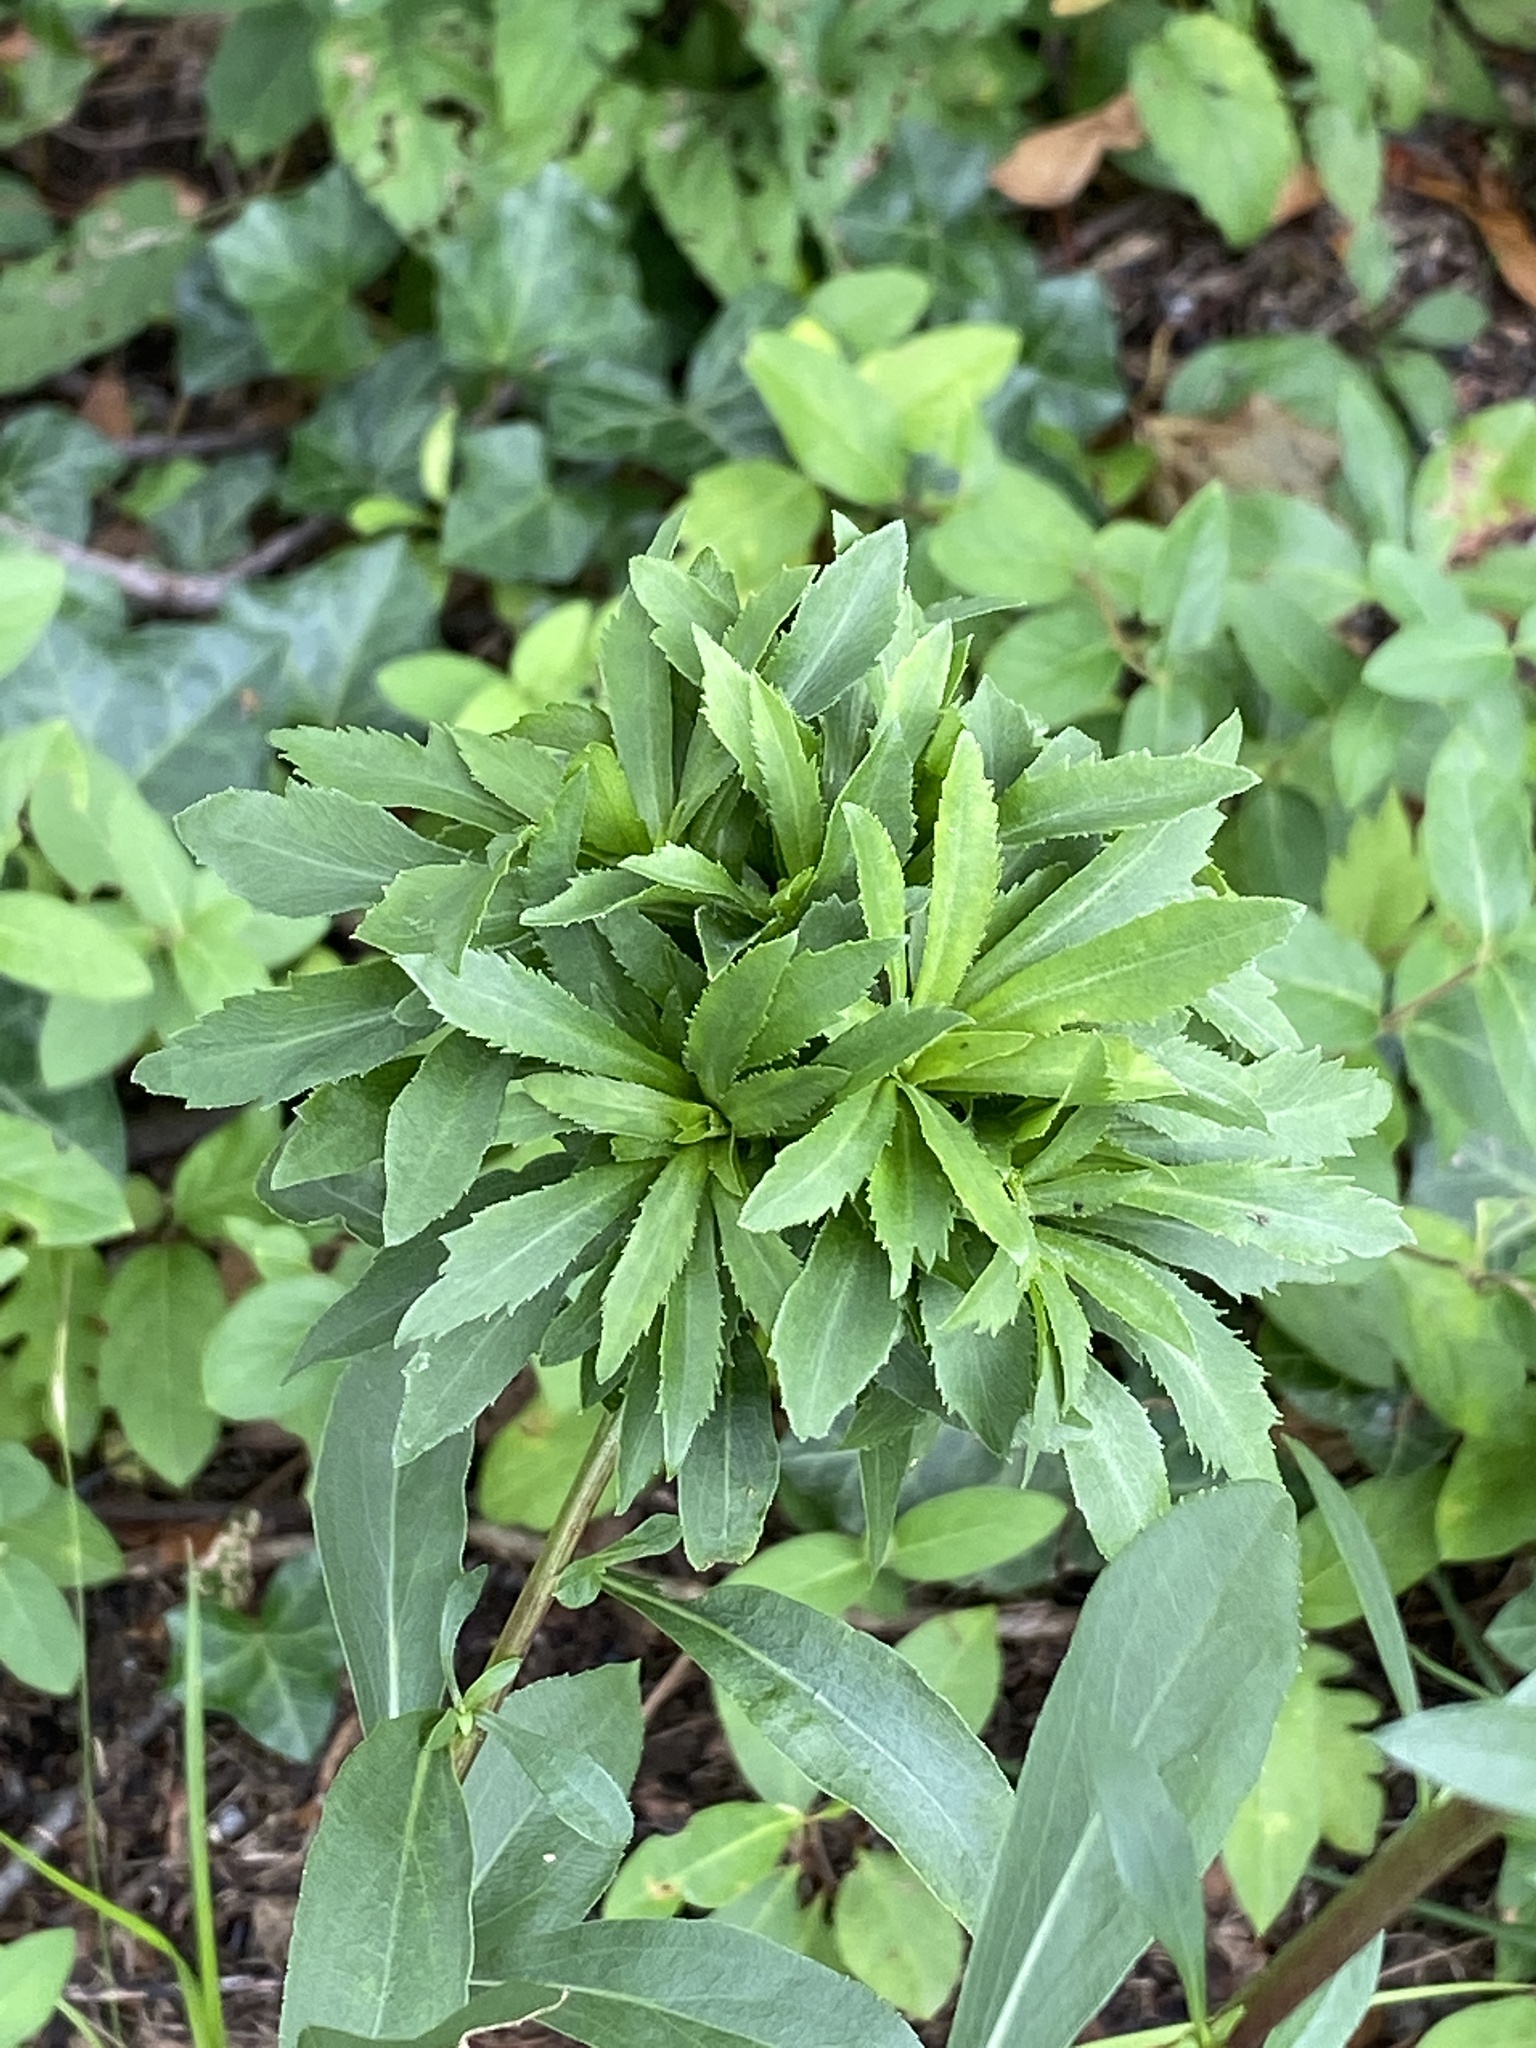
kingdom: Animalia
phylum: Arthropoda
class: Insecta
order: Diptera
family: Cecidomyiidae
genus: Asphondylia
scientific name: Asphondylia monacha
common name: Nun midge
